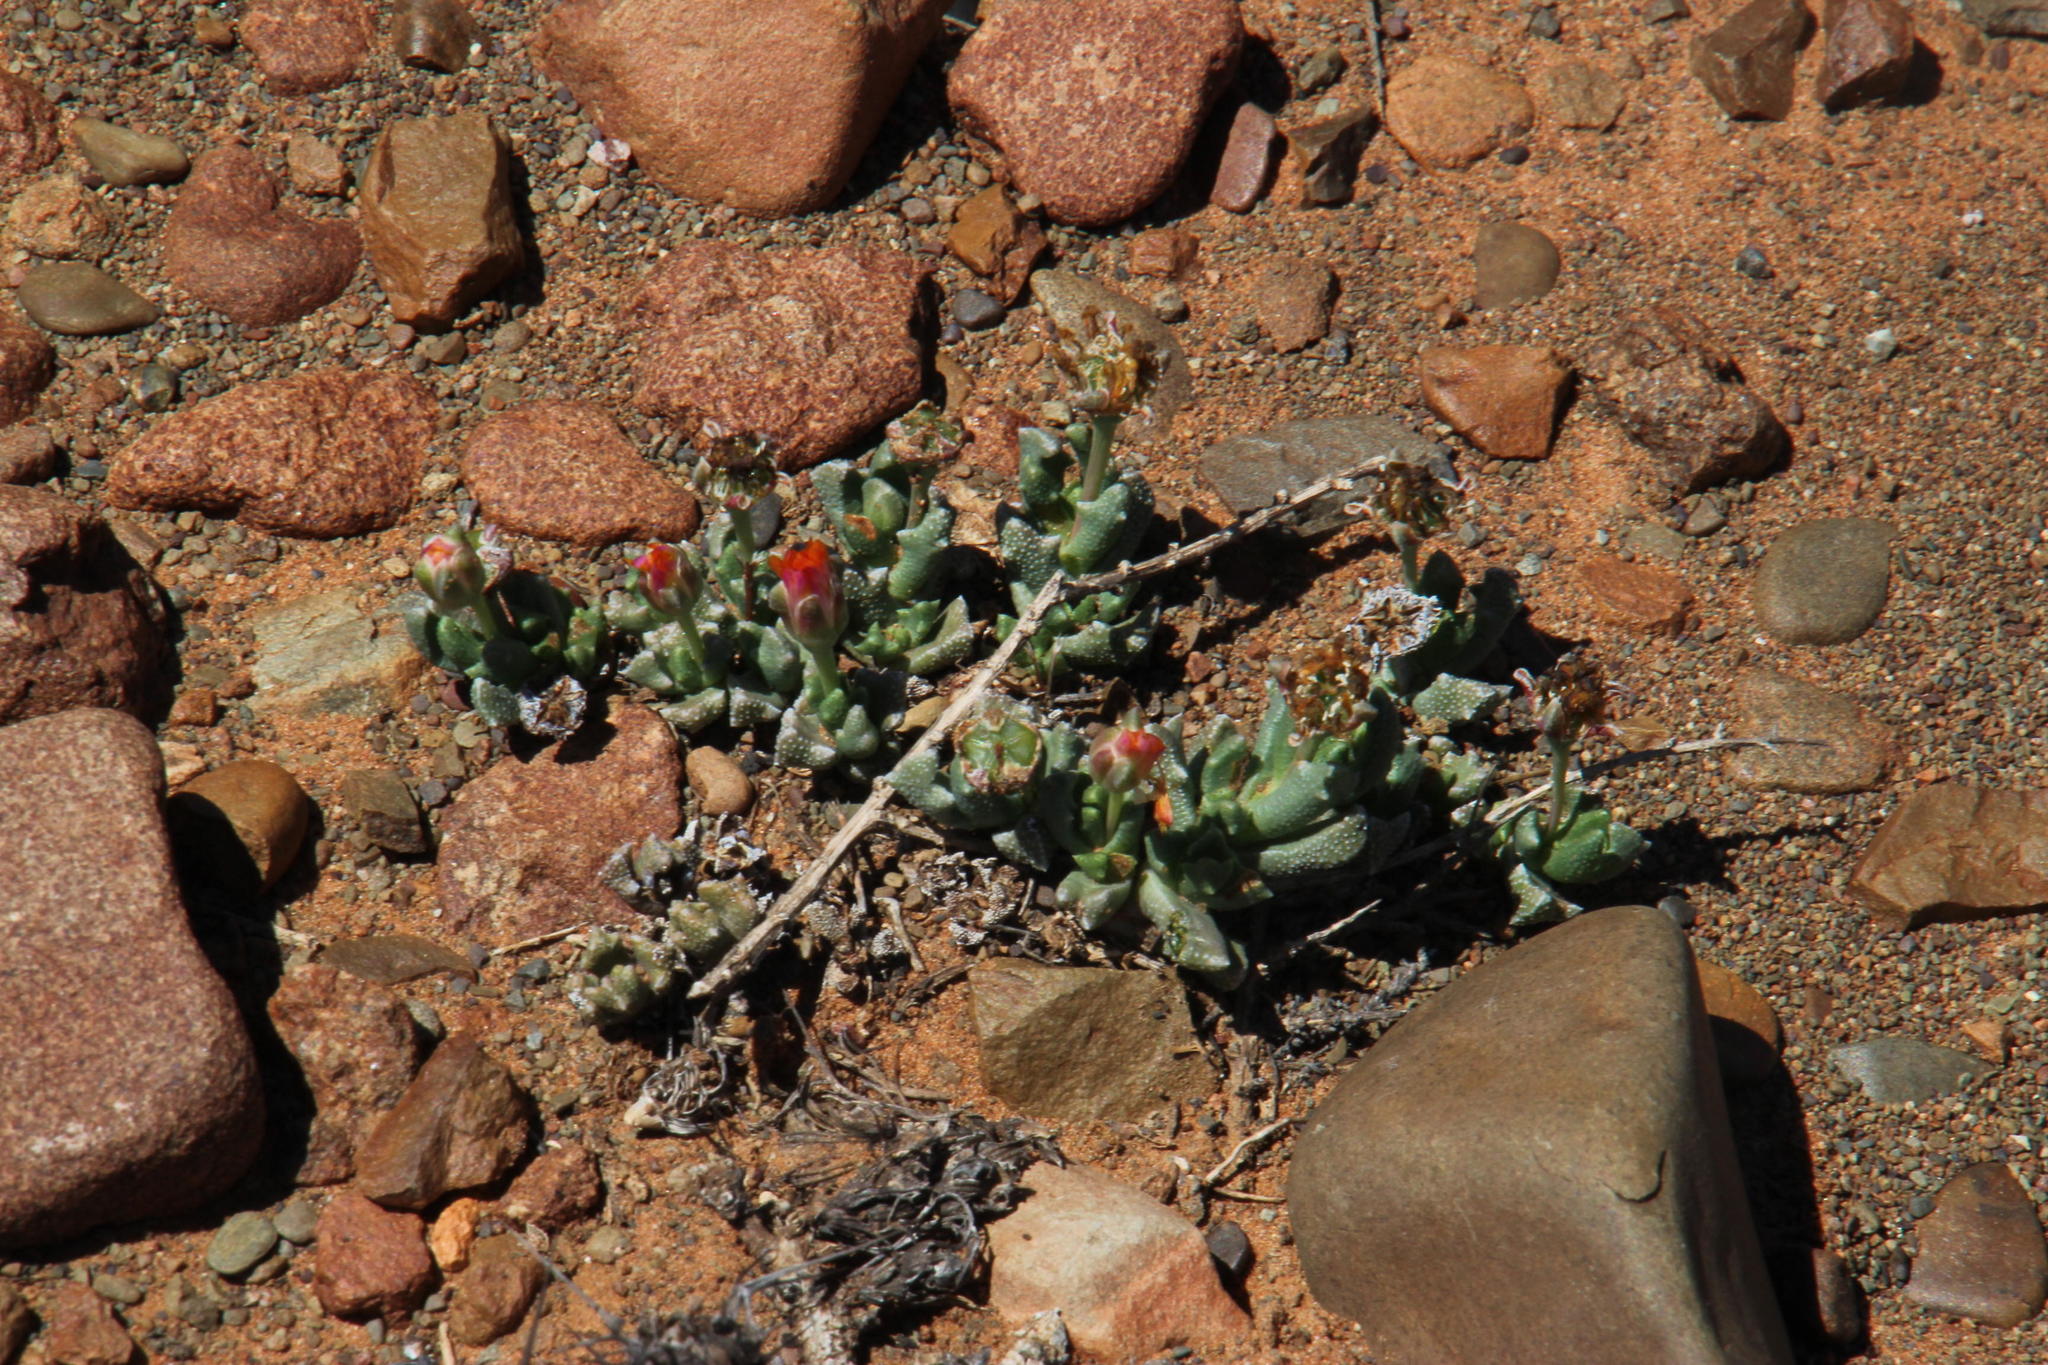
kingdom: Plantae
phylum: Tracheophyta
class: Magnoliopsida
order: Caryophyllales
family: Aizoaceae
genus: Dracophilus
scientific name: Dracophilus Chasmatophyllum musculinum
